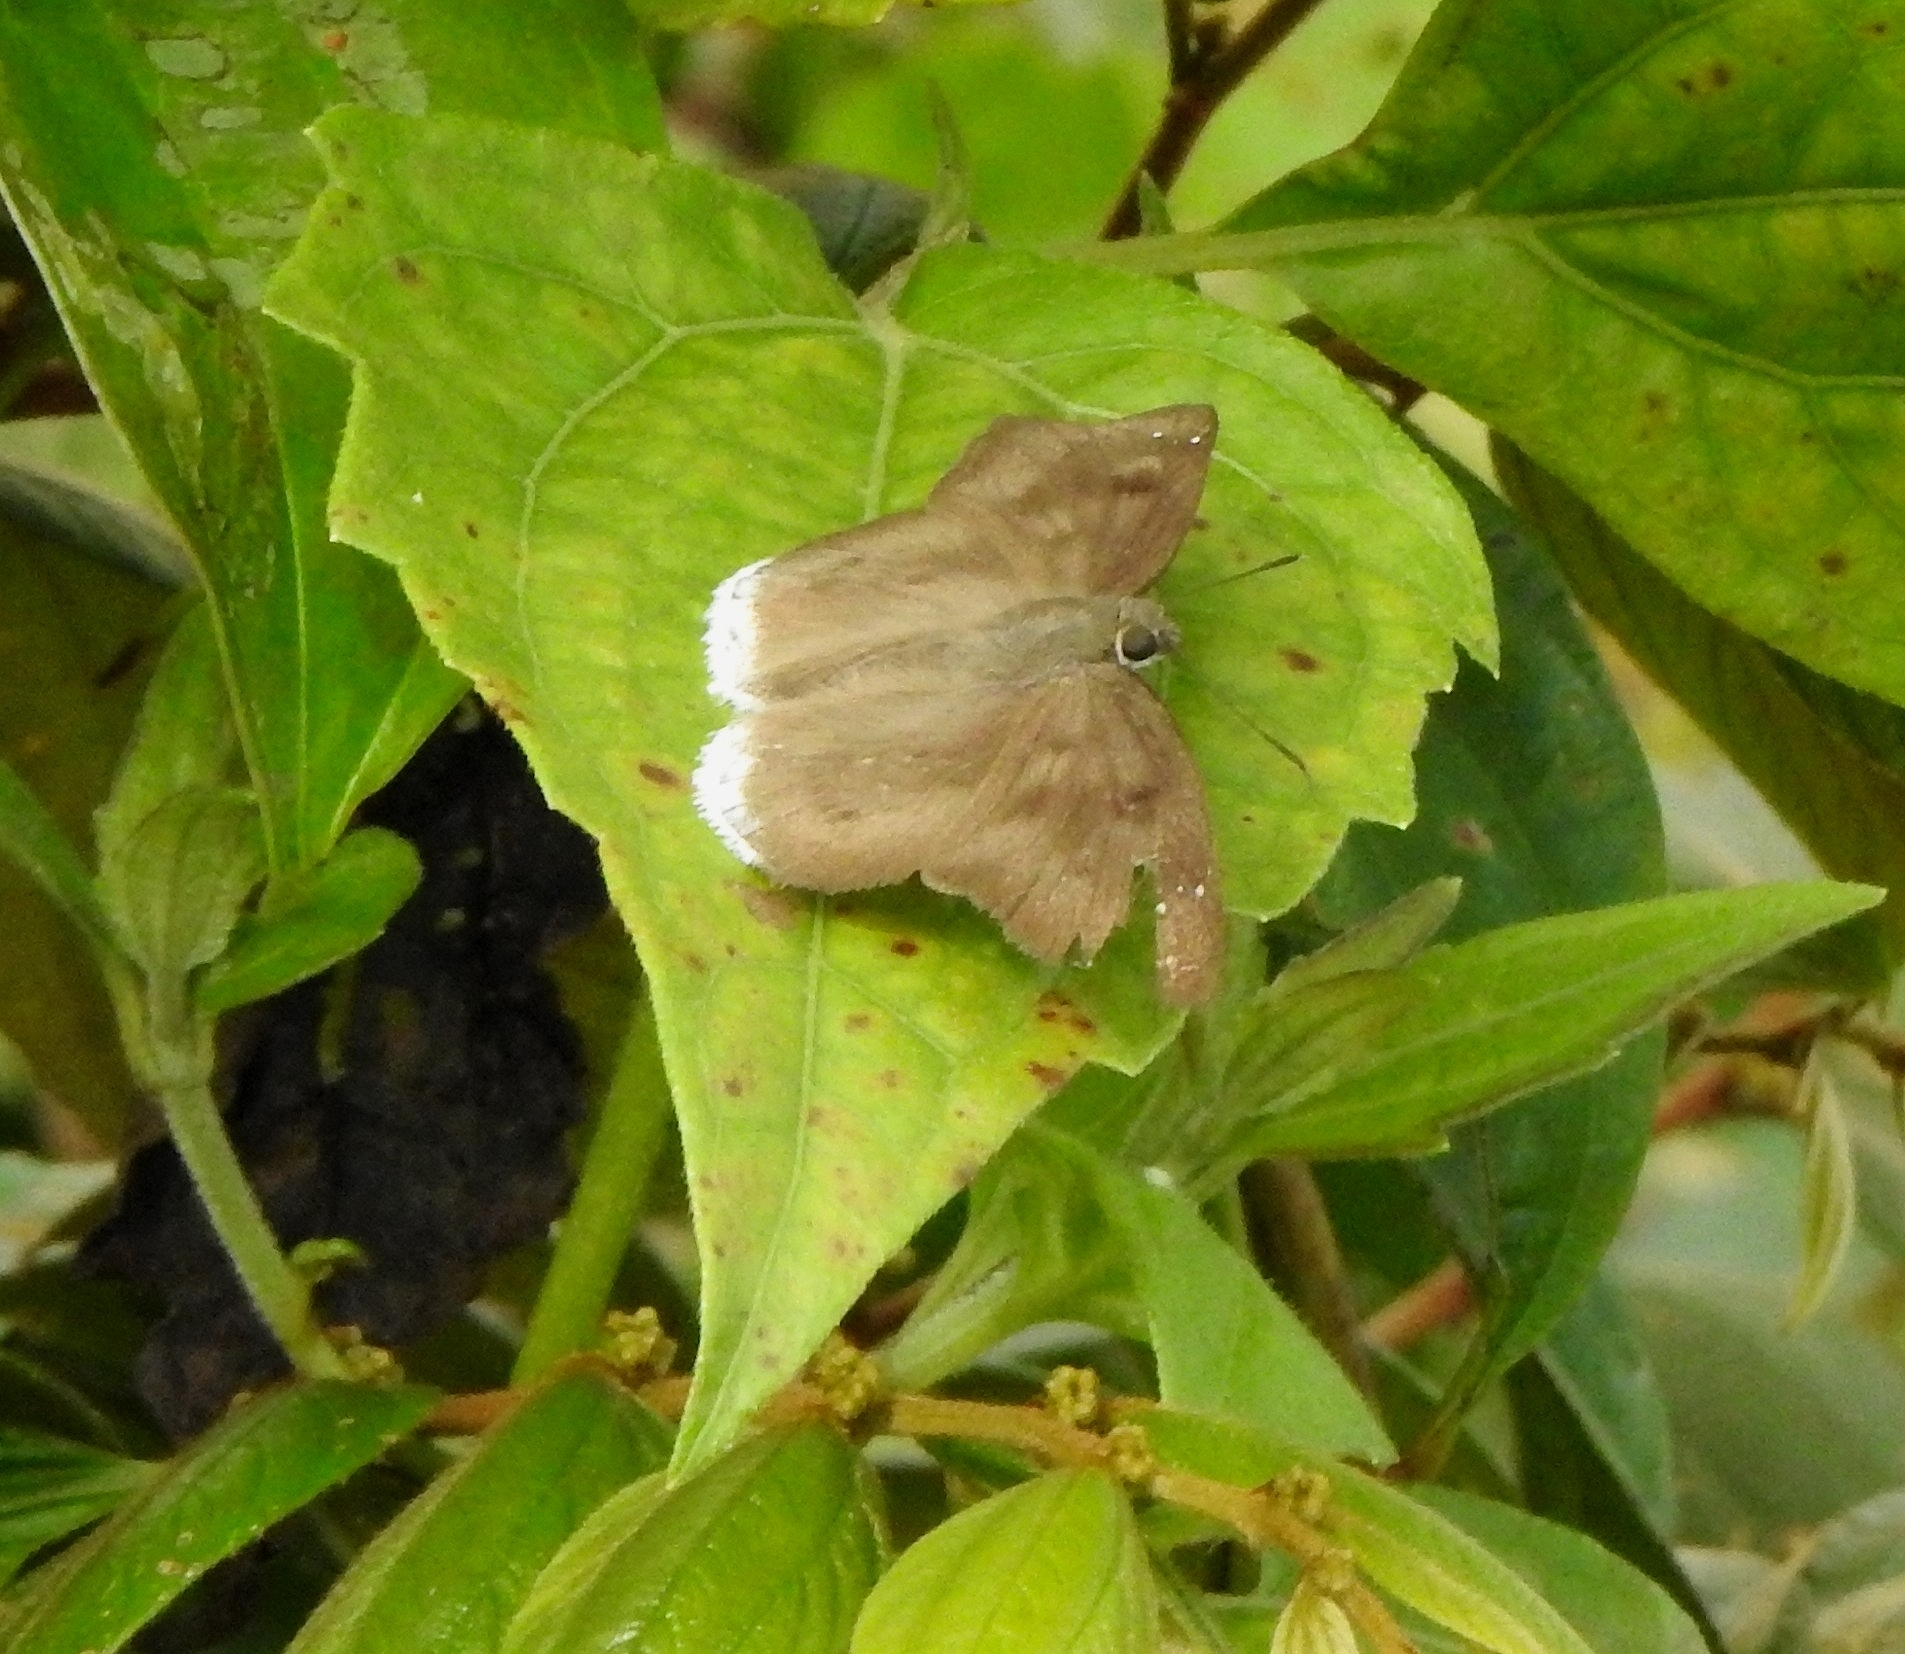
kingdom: Animalia
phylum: Arthropoda
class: Insecta
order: Lepidoptera
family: Hesperiidae
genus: Tagiades
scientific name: Tagiades gana
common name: Suffused snow flat
